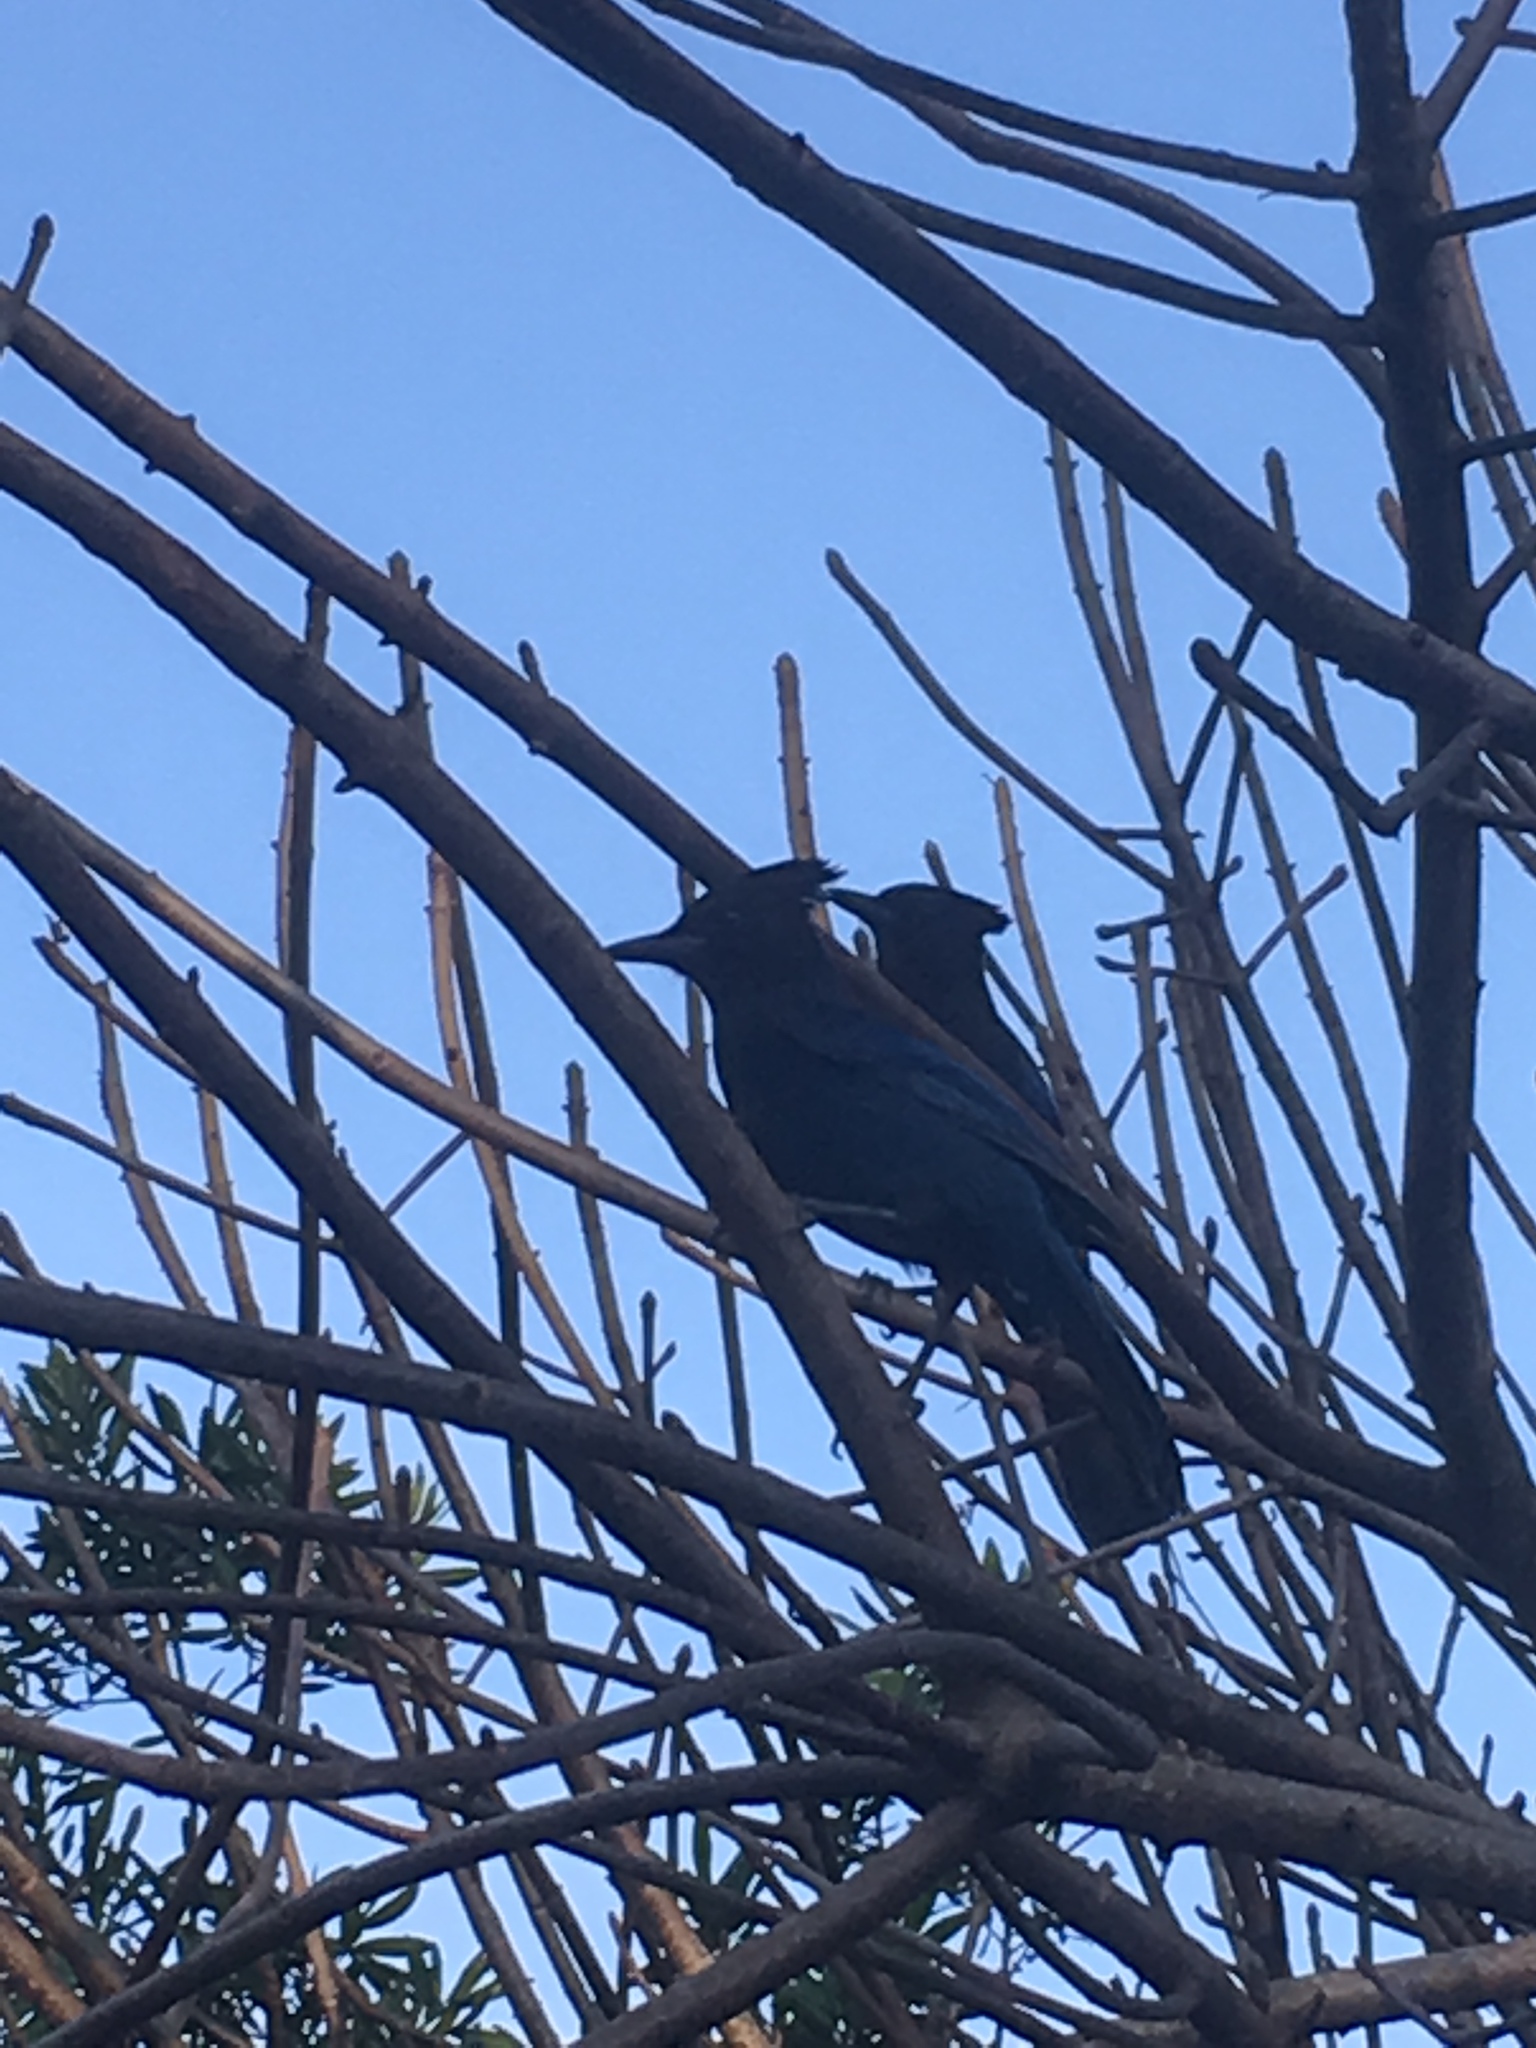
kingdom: Animalia
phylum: Chordata
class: Aves
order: Passeriformes
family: Corvidae
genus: Cyanocitta
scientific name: Cyanocitta stelleri
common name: Steller's jay
